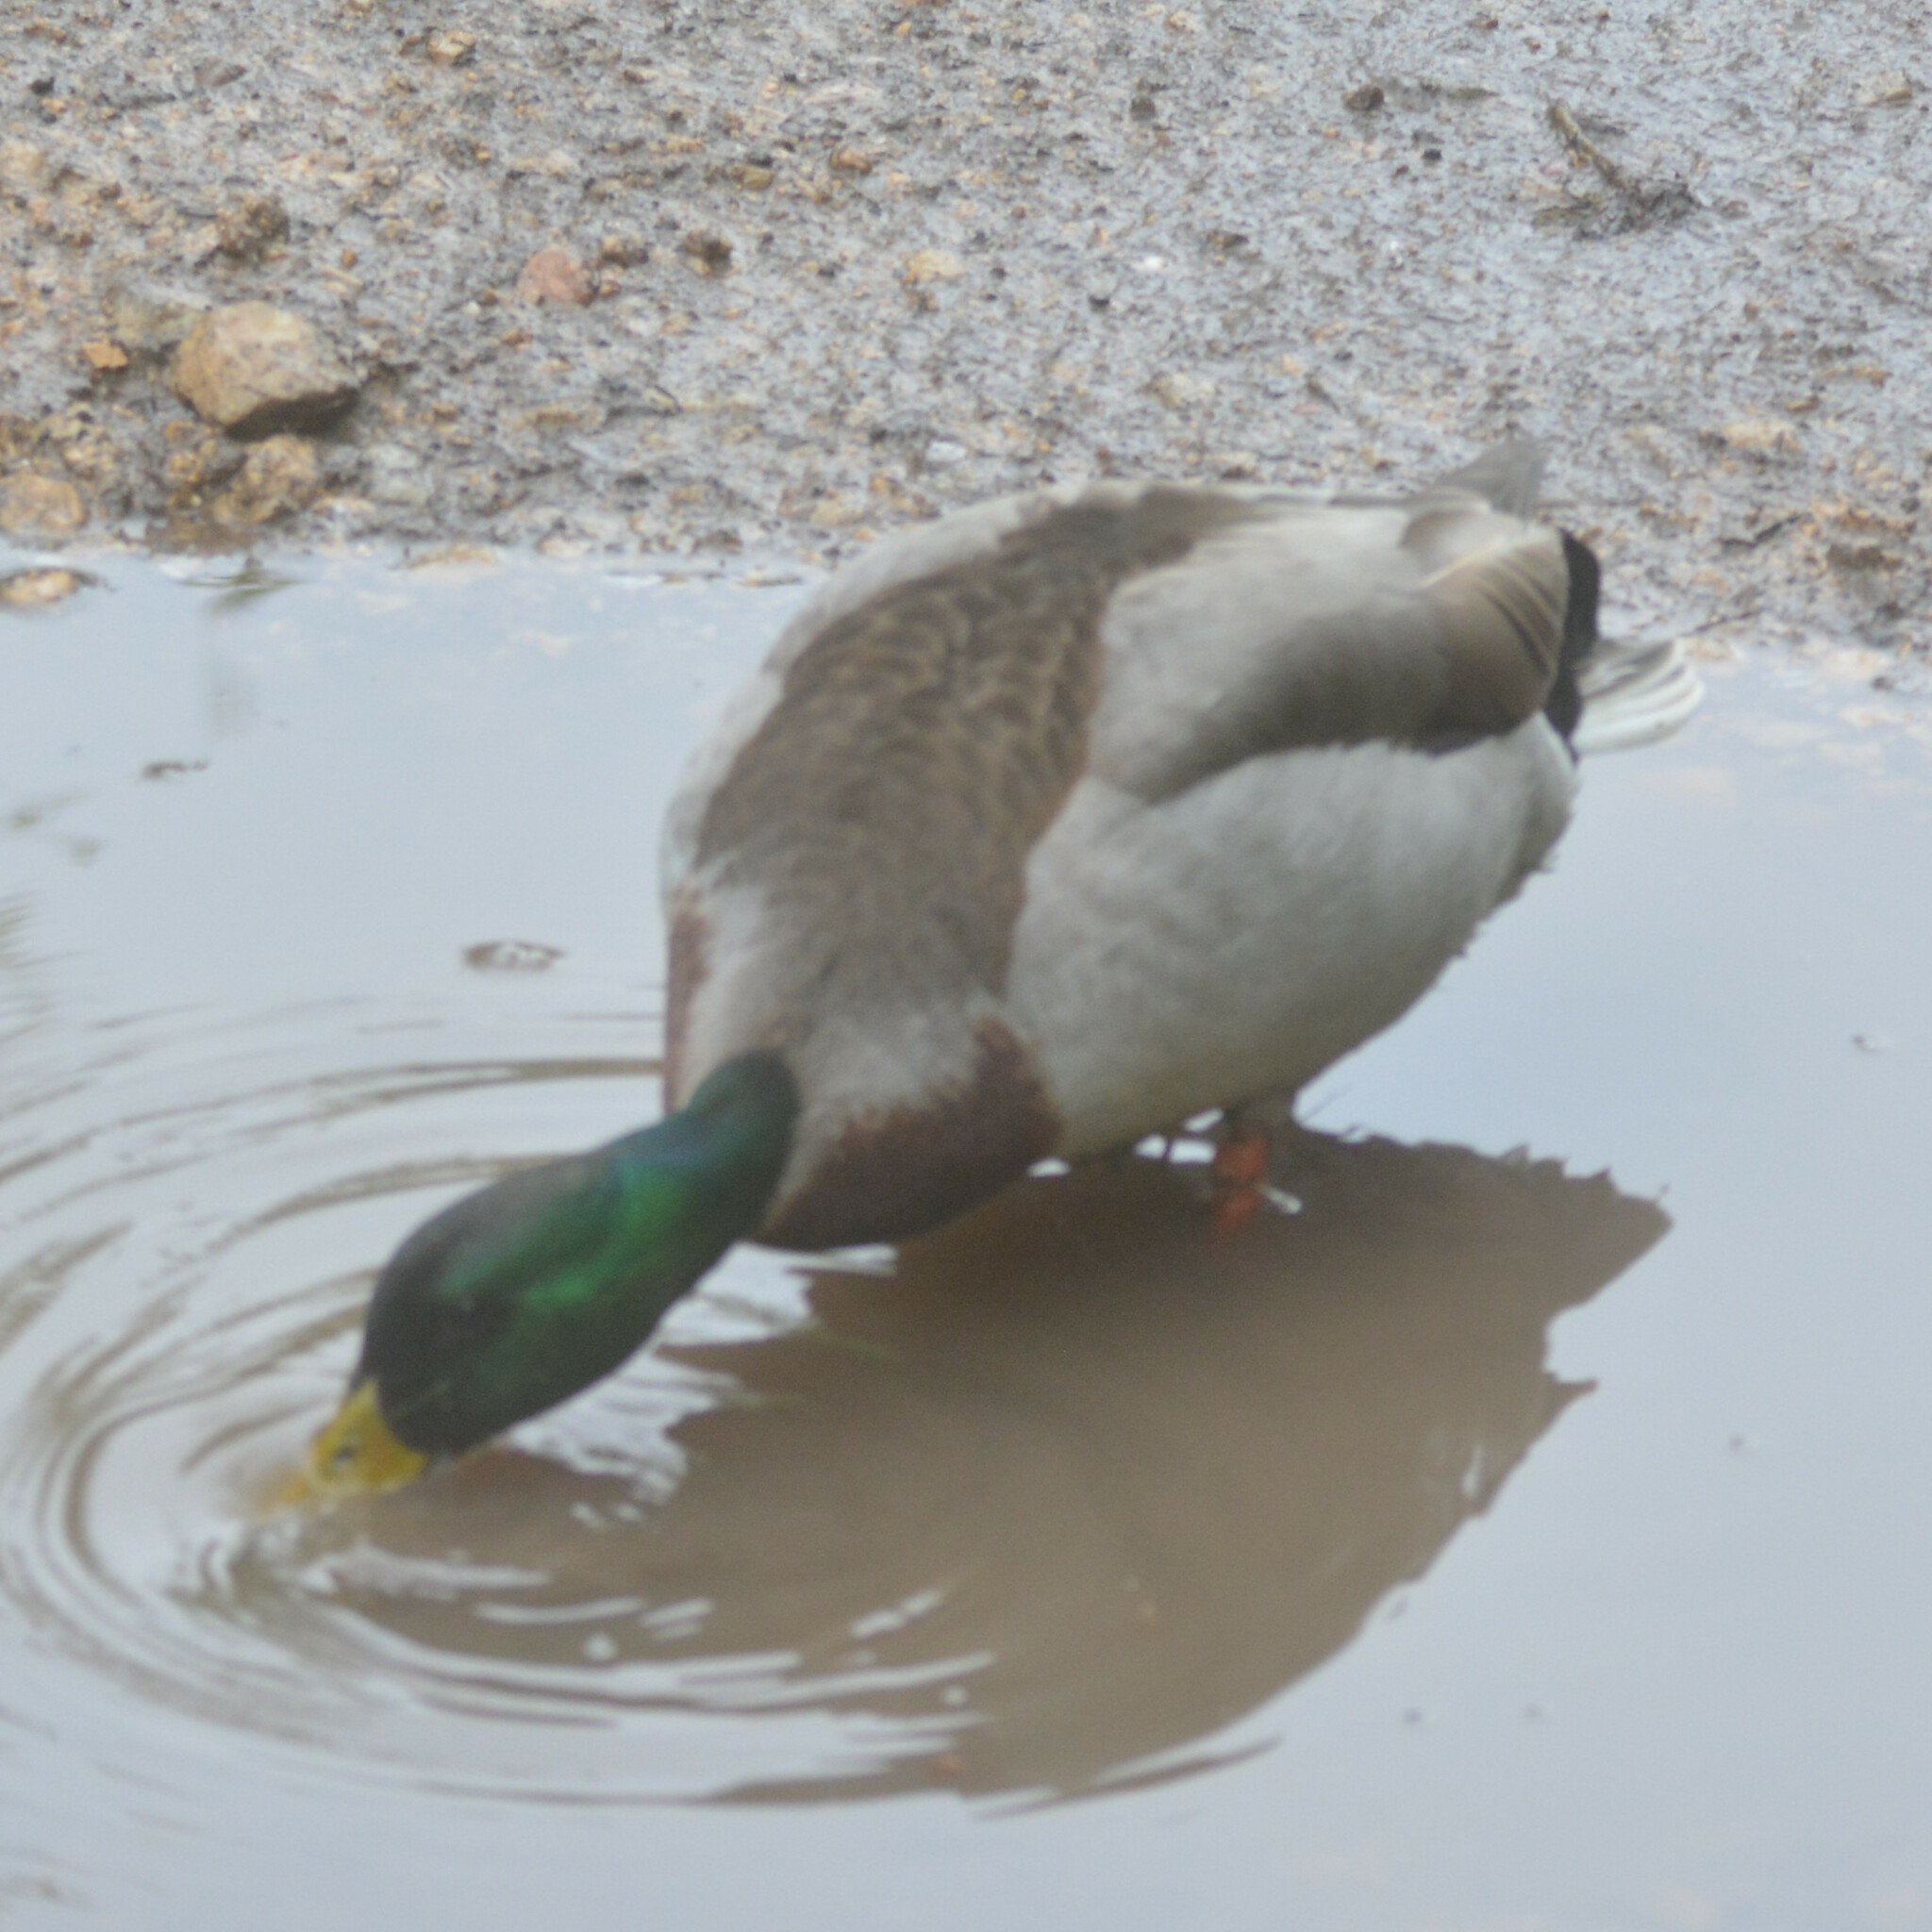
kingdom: Animalia
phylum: Chordata
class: Aves
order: Anseriformes
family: Anatidae
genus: Anas
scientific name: Anas platyrhynchos
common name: Mallard
